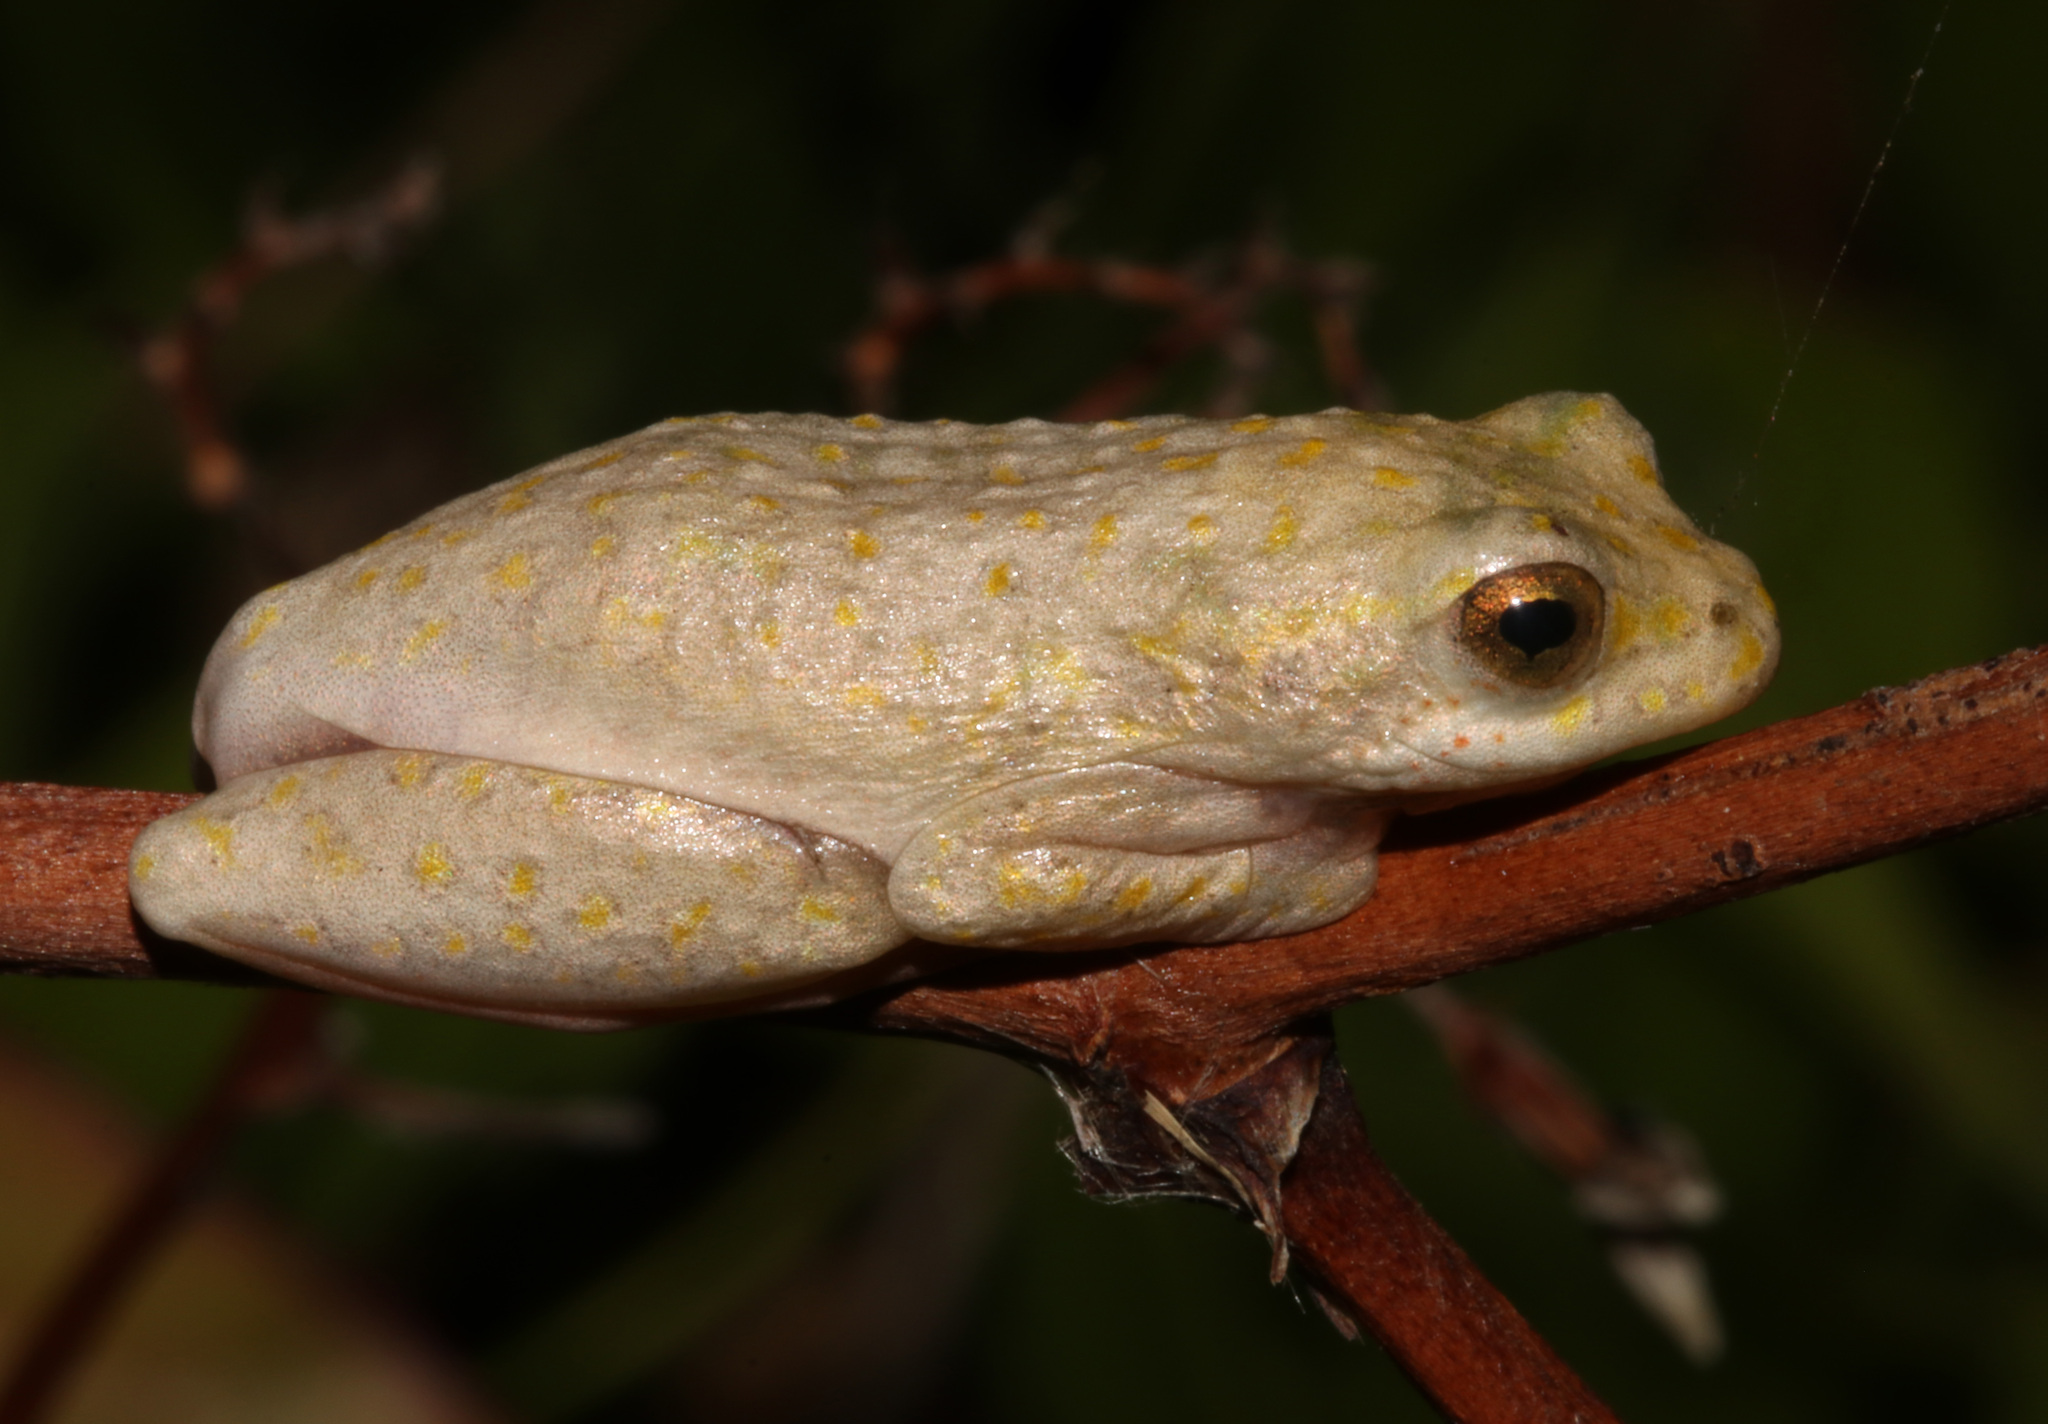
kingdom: Animalia
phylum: Chordata
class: Amphibia
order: Anura
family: Hyperoliidae
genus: Hyperolius
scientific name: Hyperolius marmoratus
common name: Painted reed frog
